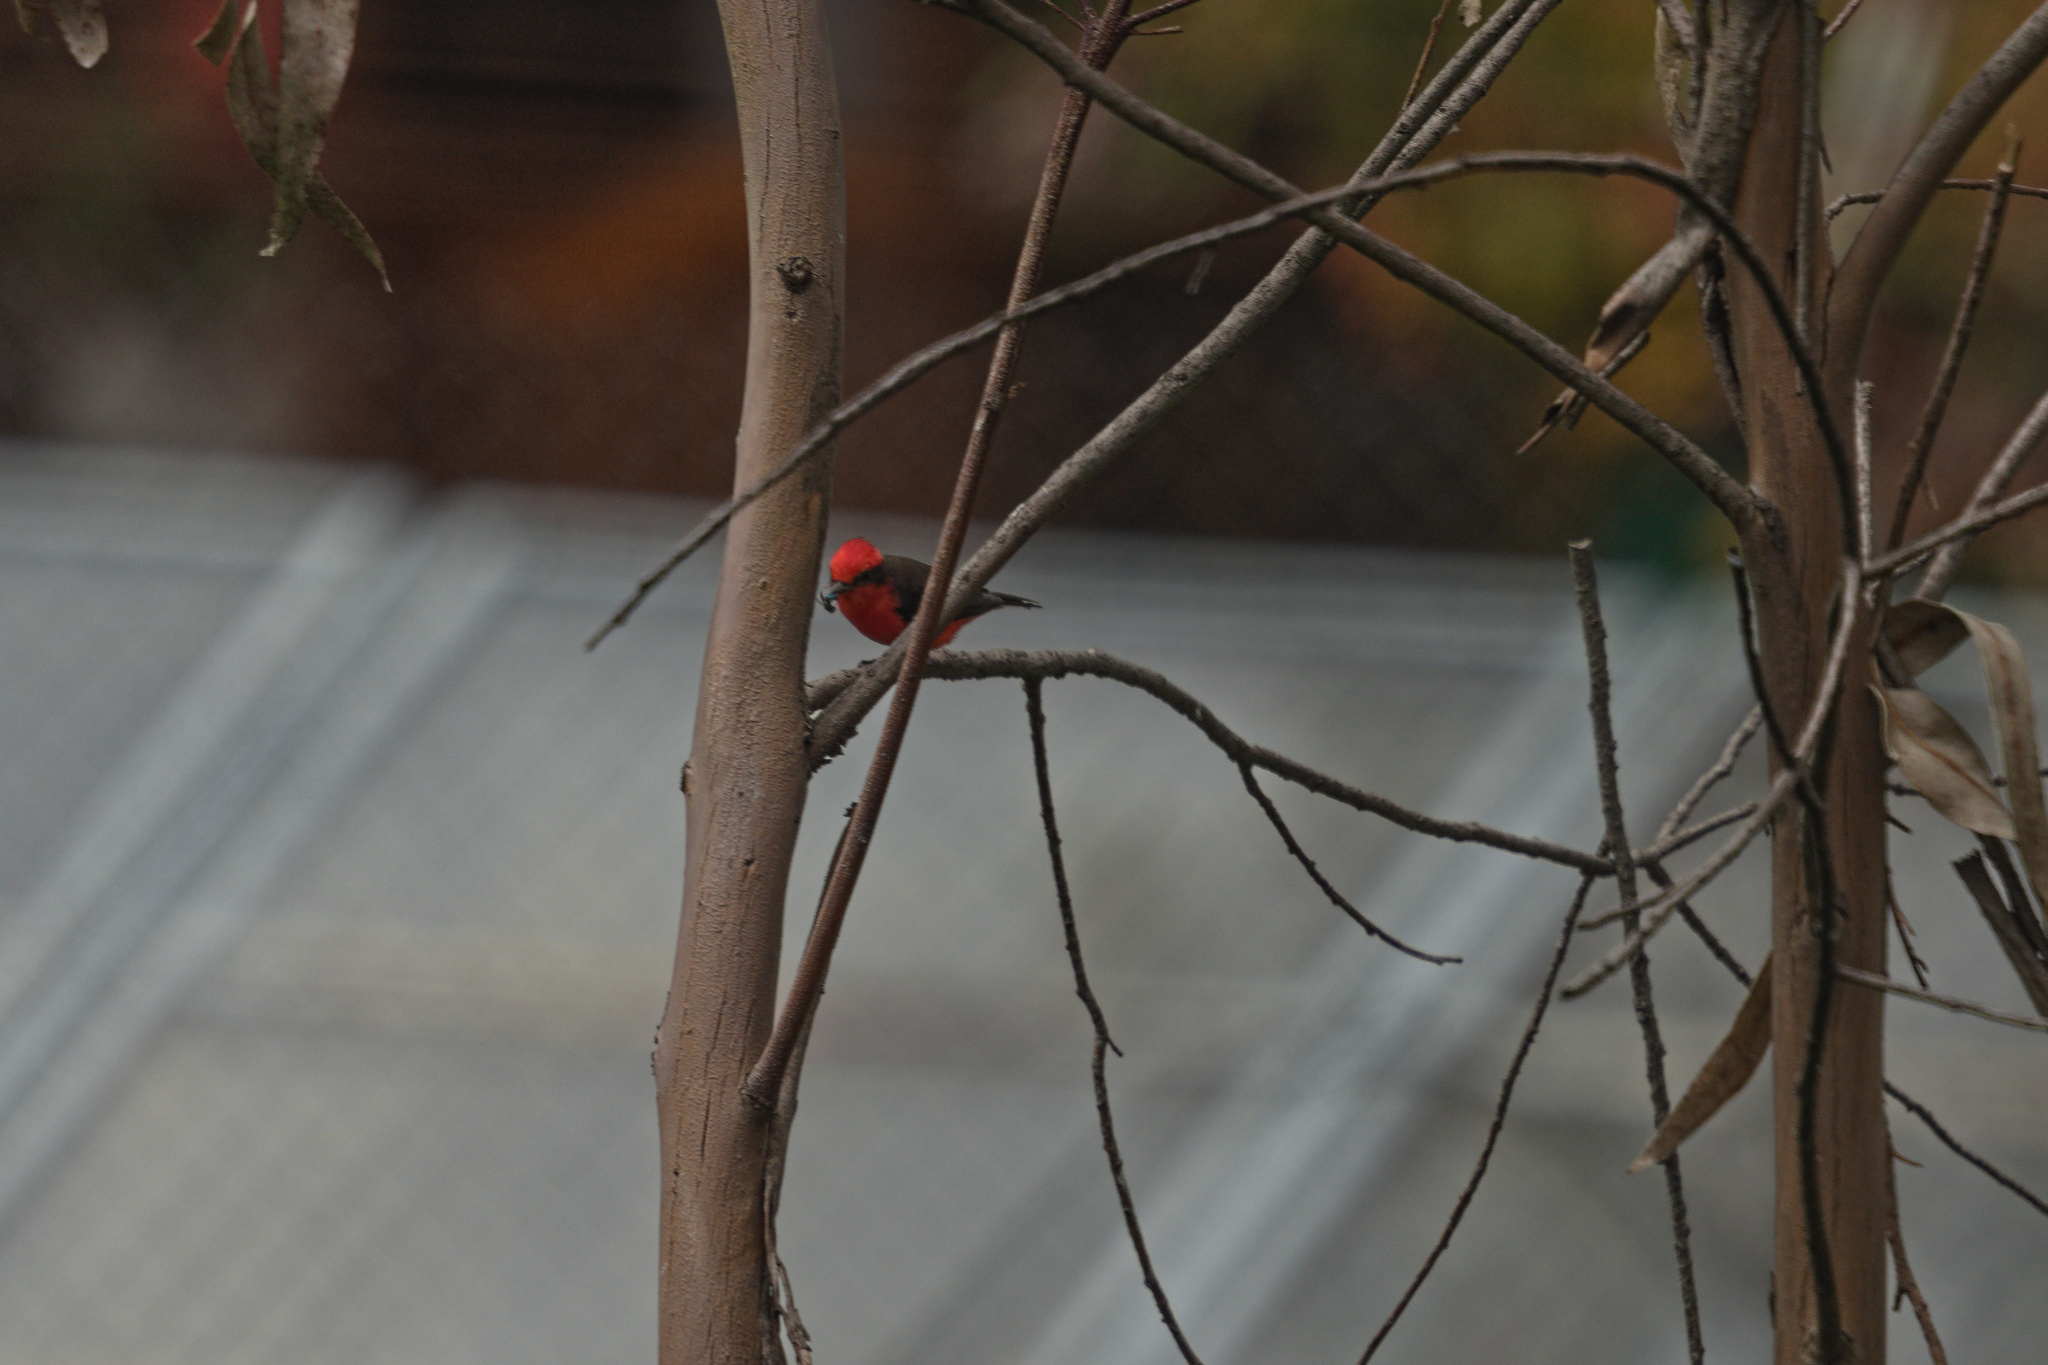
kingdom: Animalia
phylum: Chordata
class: Aves
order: Passeriformes
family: Tyrannidae
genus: Pyrocephalus
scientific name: Pyrocephalus rubinus
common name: Vermilion flycatcher
